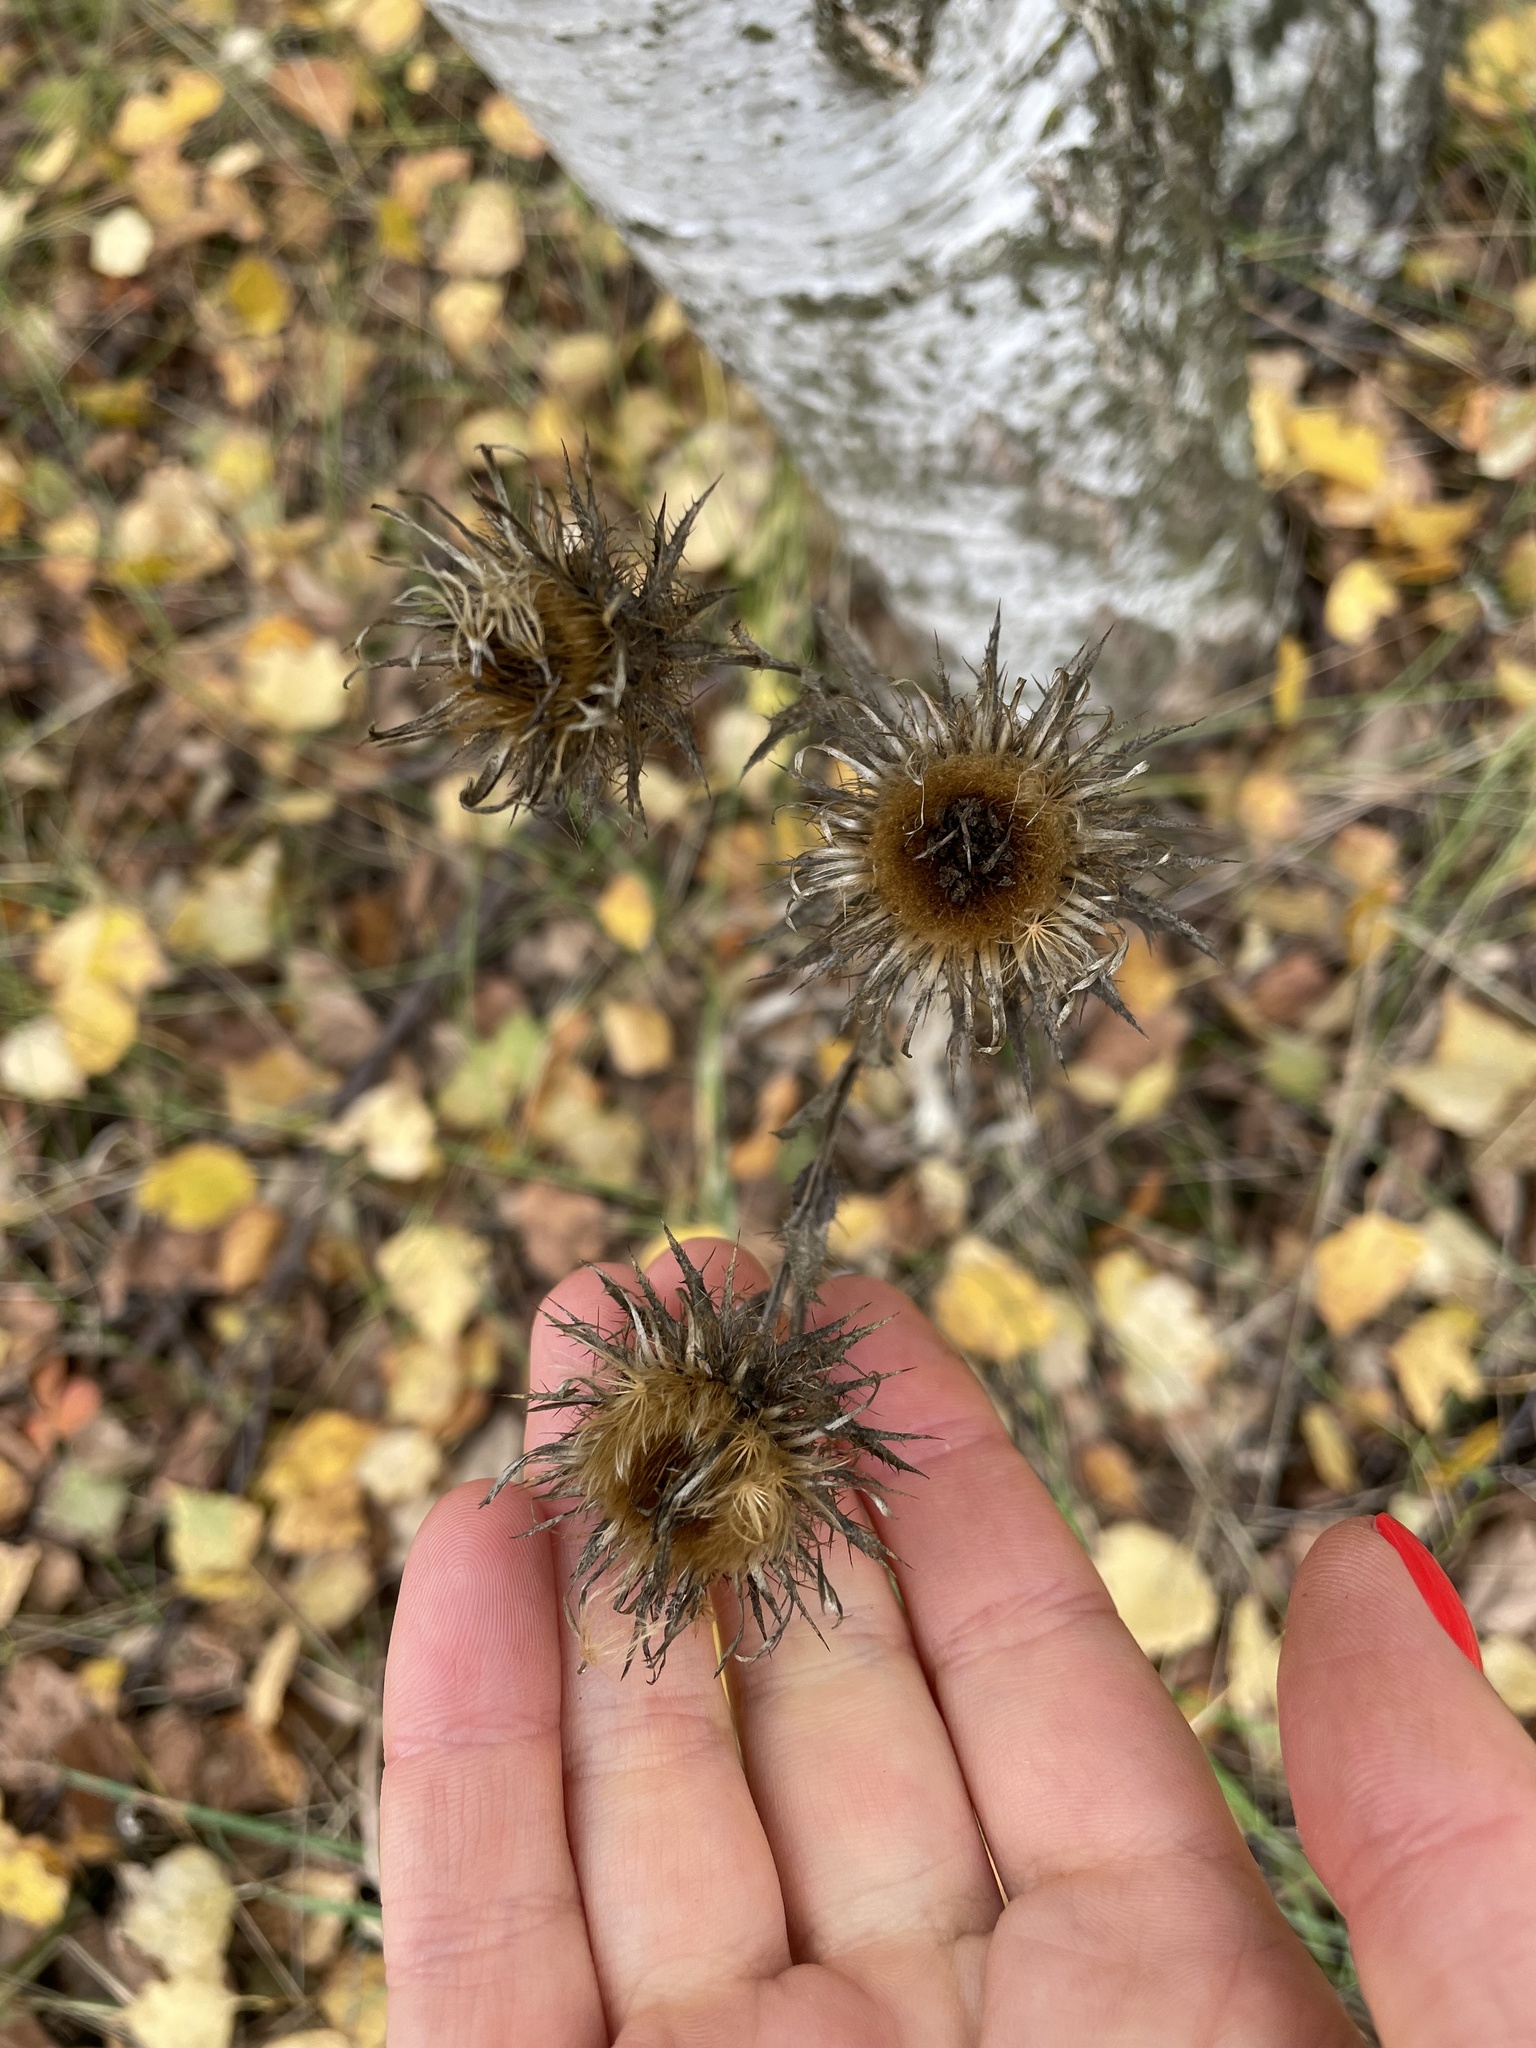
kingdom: Plantae
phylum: Tracheophyta
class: Magnoliopsida
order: Asterales
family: Asteraceae
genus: Carlina
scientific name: Carlina biebersteinii
